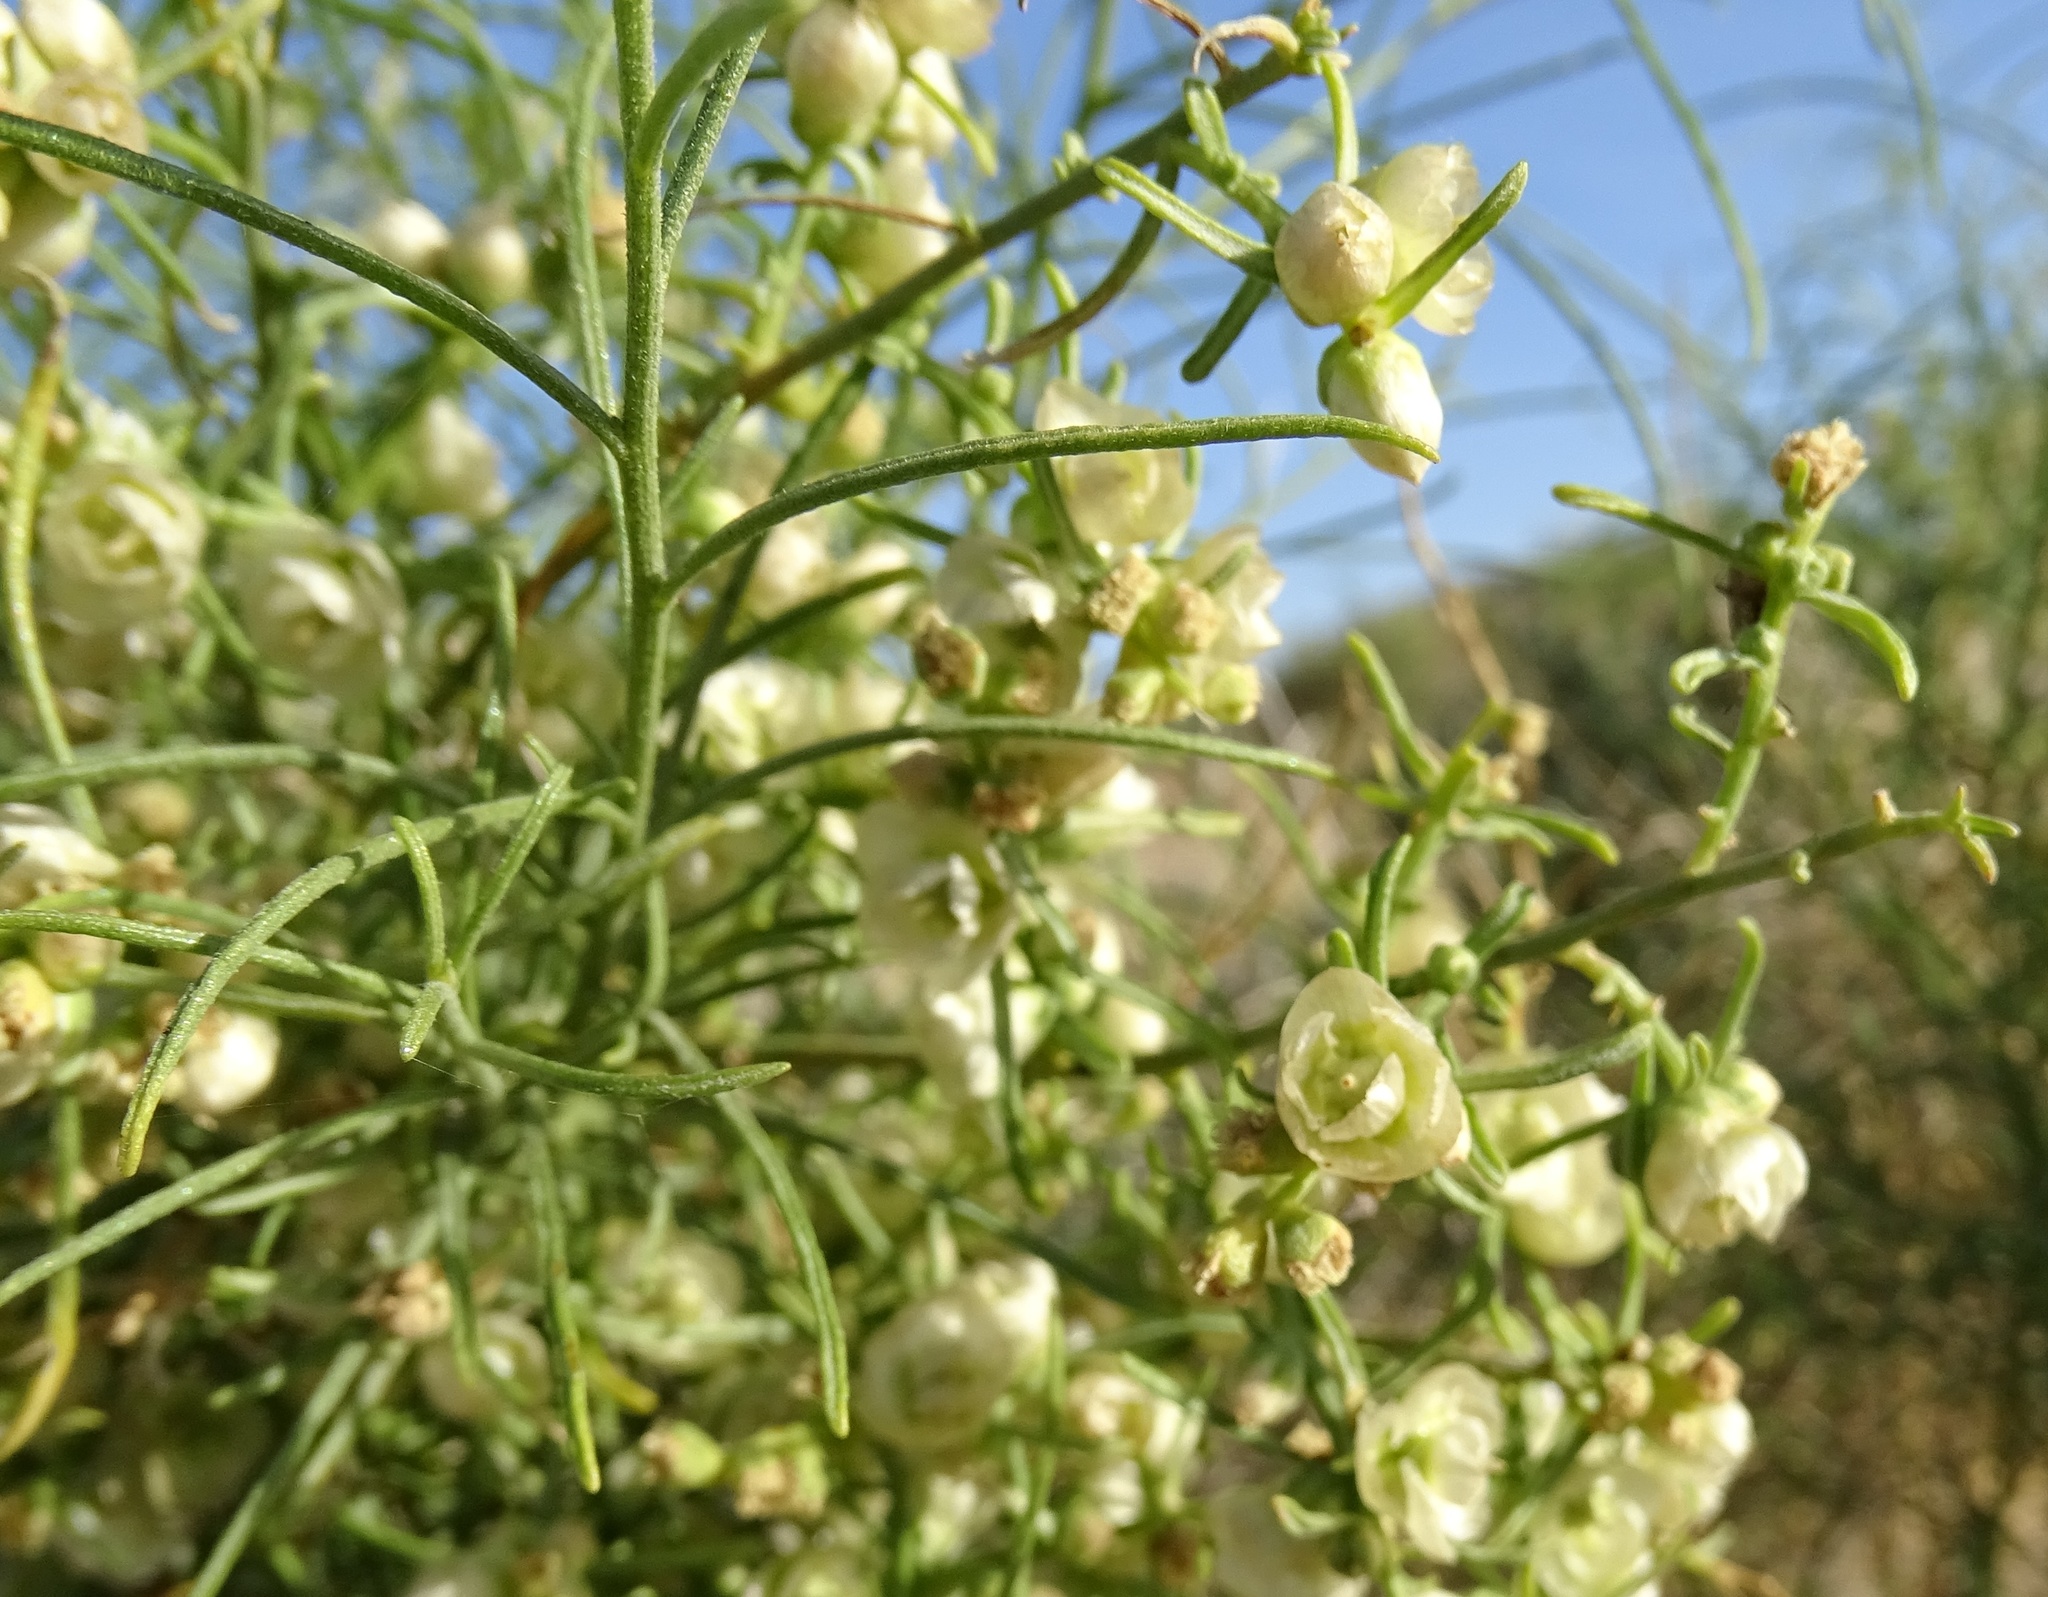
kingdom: Plantae
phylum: Tracheophyta
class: Magnoliopsida
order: Asterales
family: Asteraceae
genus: Ambrosia
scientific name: Ambrosia salsola
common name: Burrobrush
